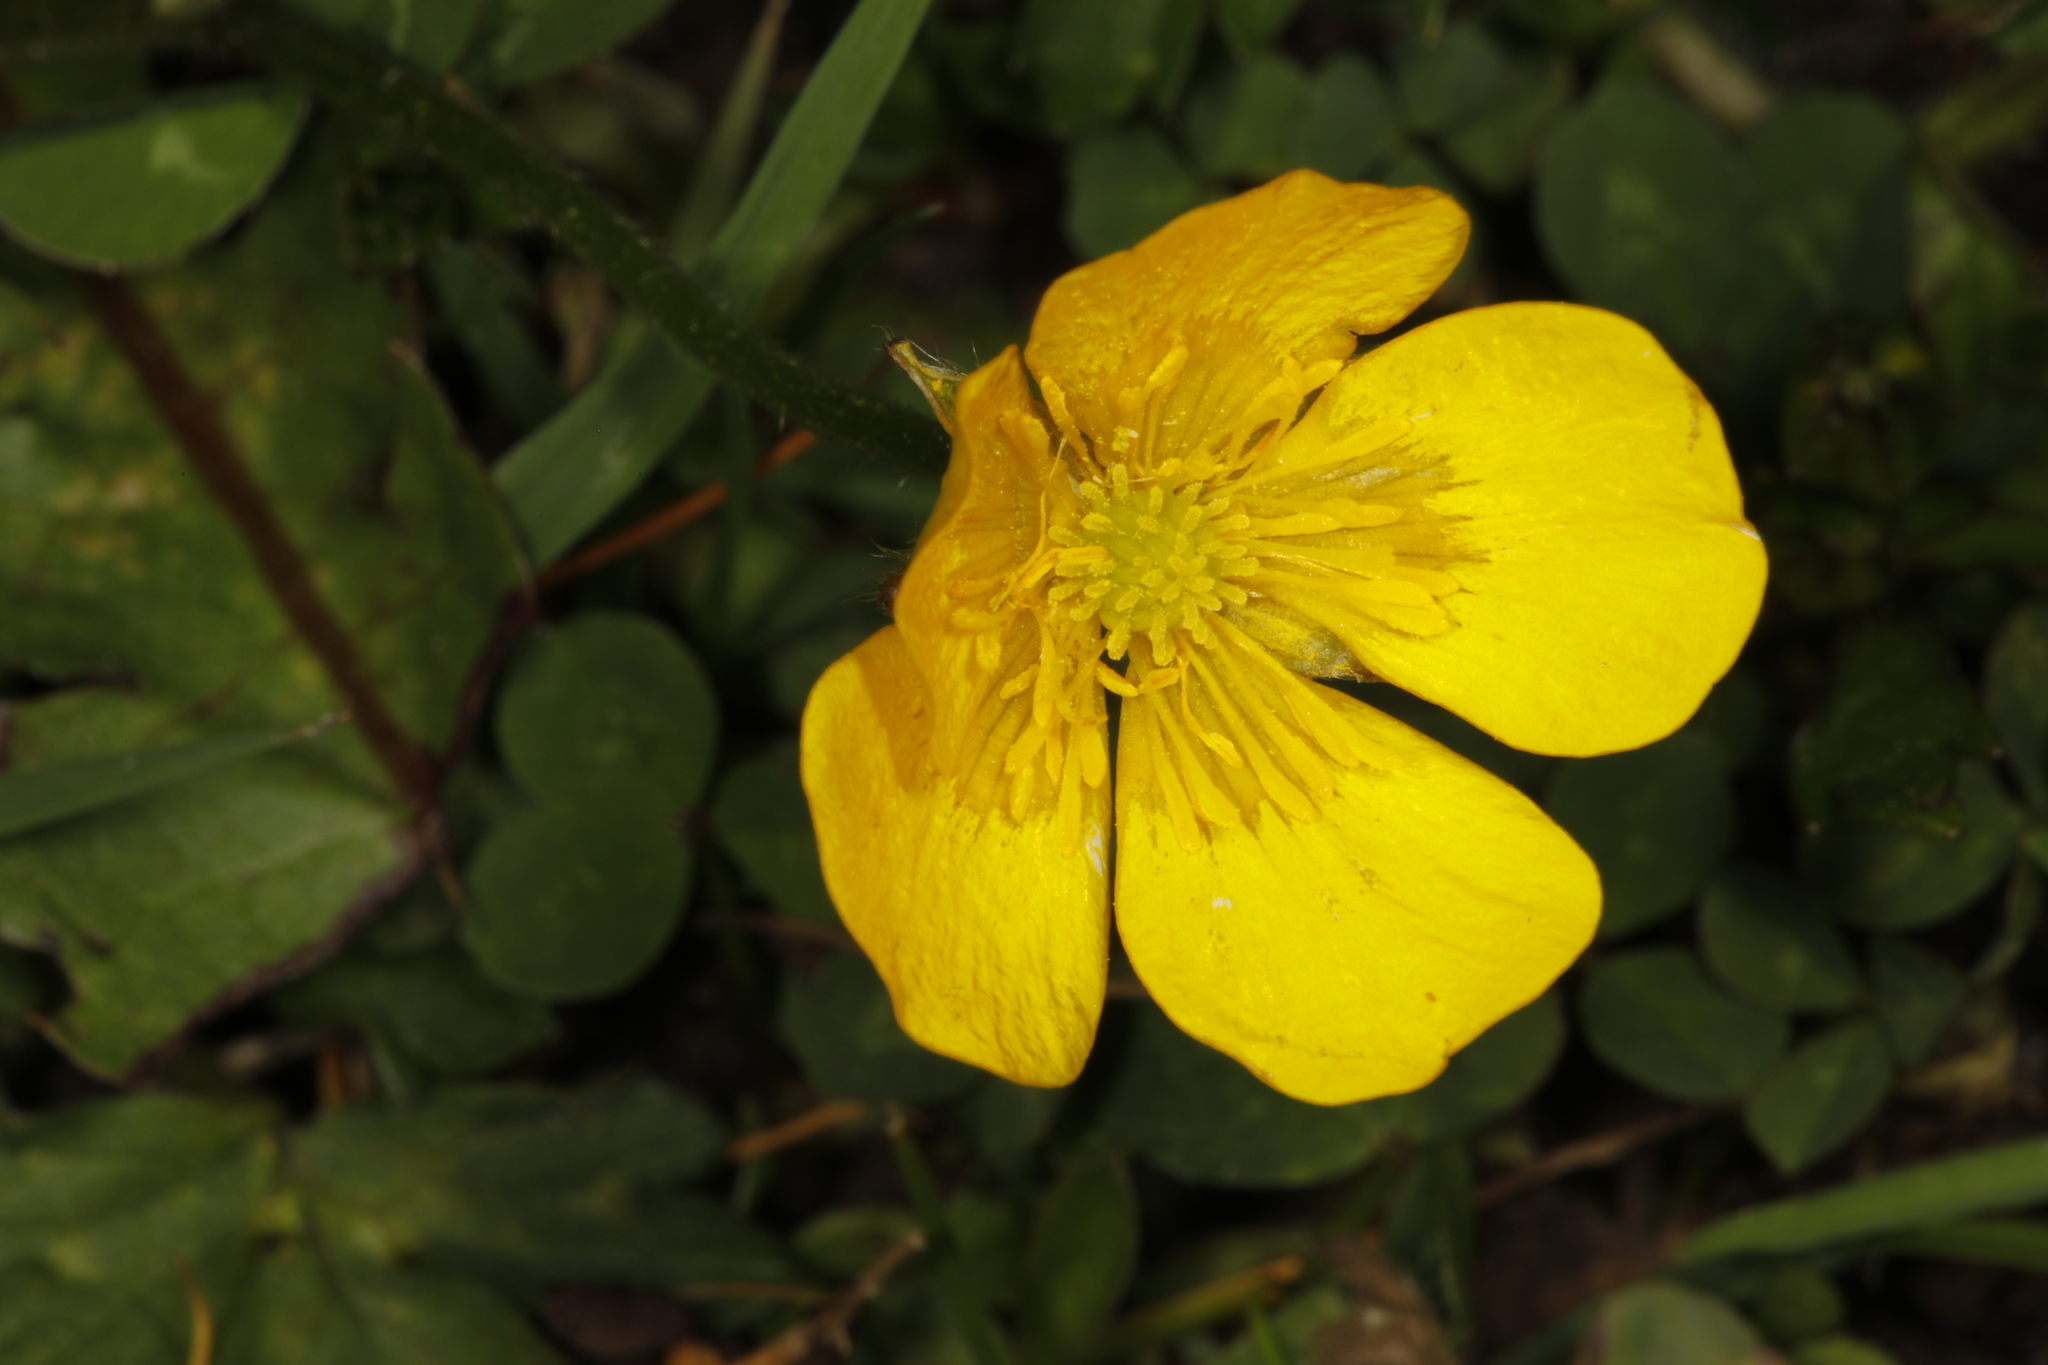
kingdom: Plantae
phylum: Tracheophyta
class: Magnoliopsida
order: Ranunculales
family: Ranunculaceae
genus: Ranunculus
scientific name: Ranunculus repens
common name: Creeping buttercup
